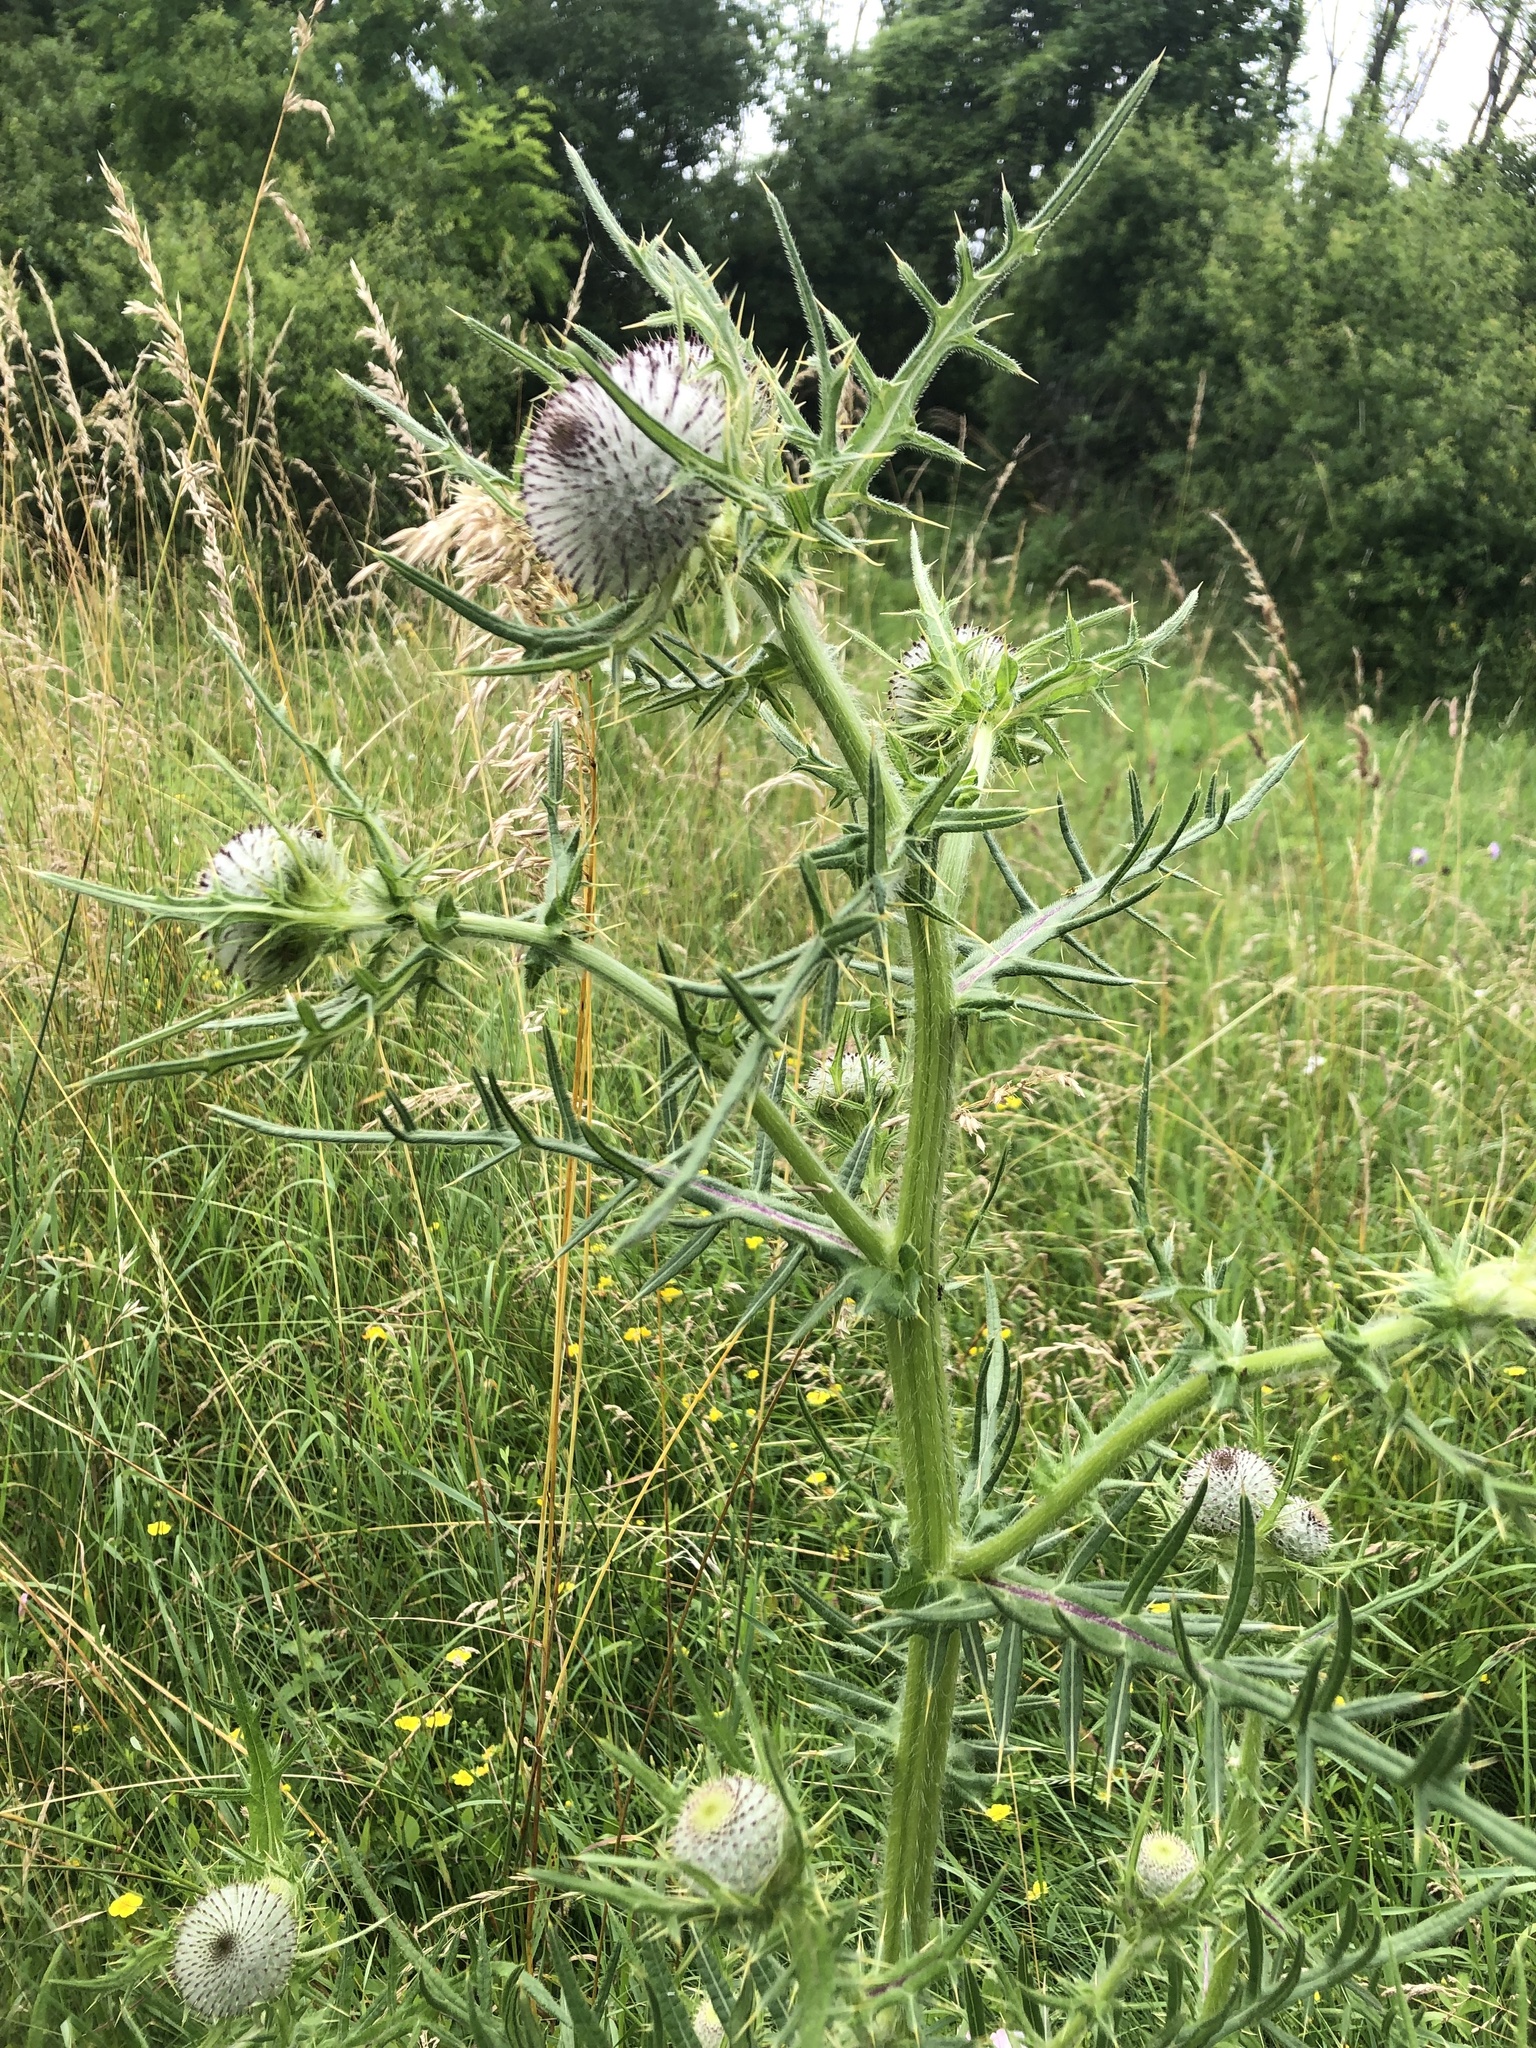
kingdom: Plantae
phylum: Tracheophyta
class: Magnoliopsida
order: Asterales
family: Asteraceae
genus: Lophiolepis
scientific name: Lophiolepis eriophora
